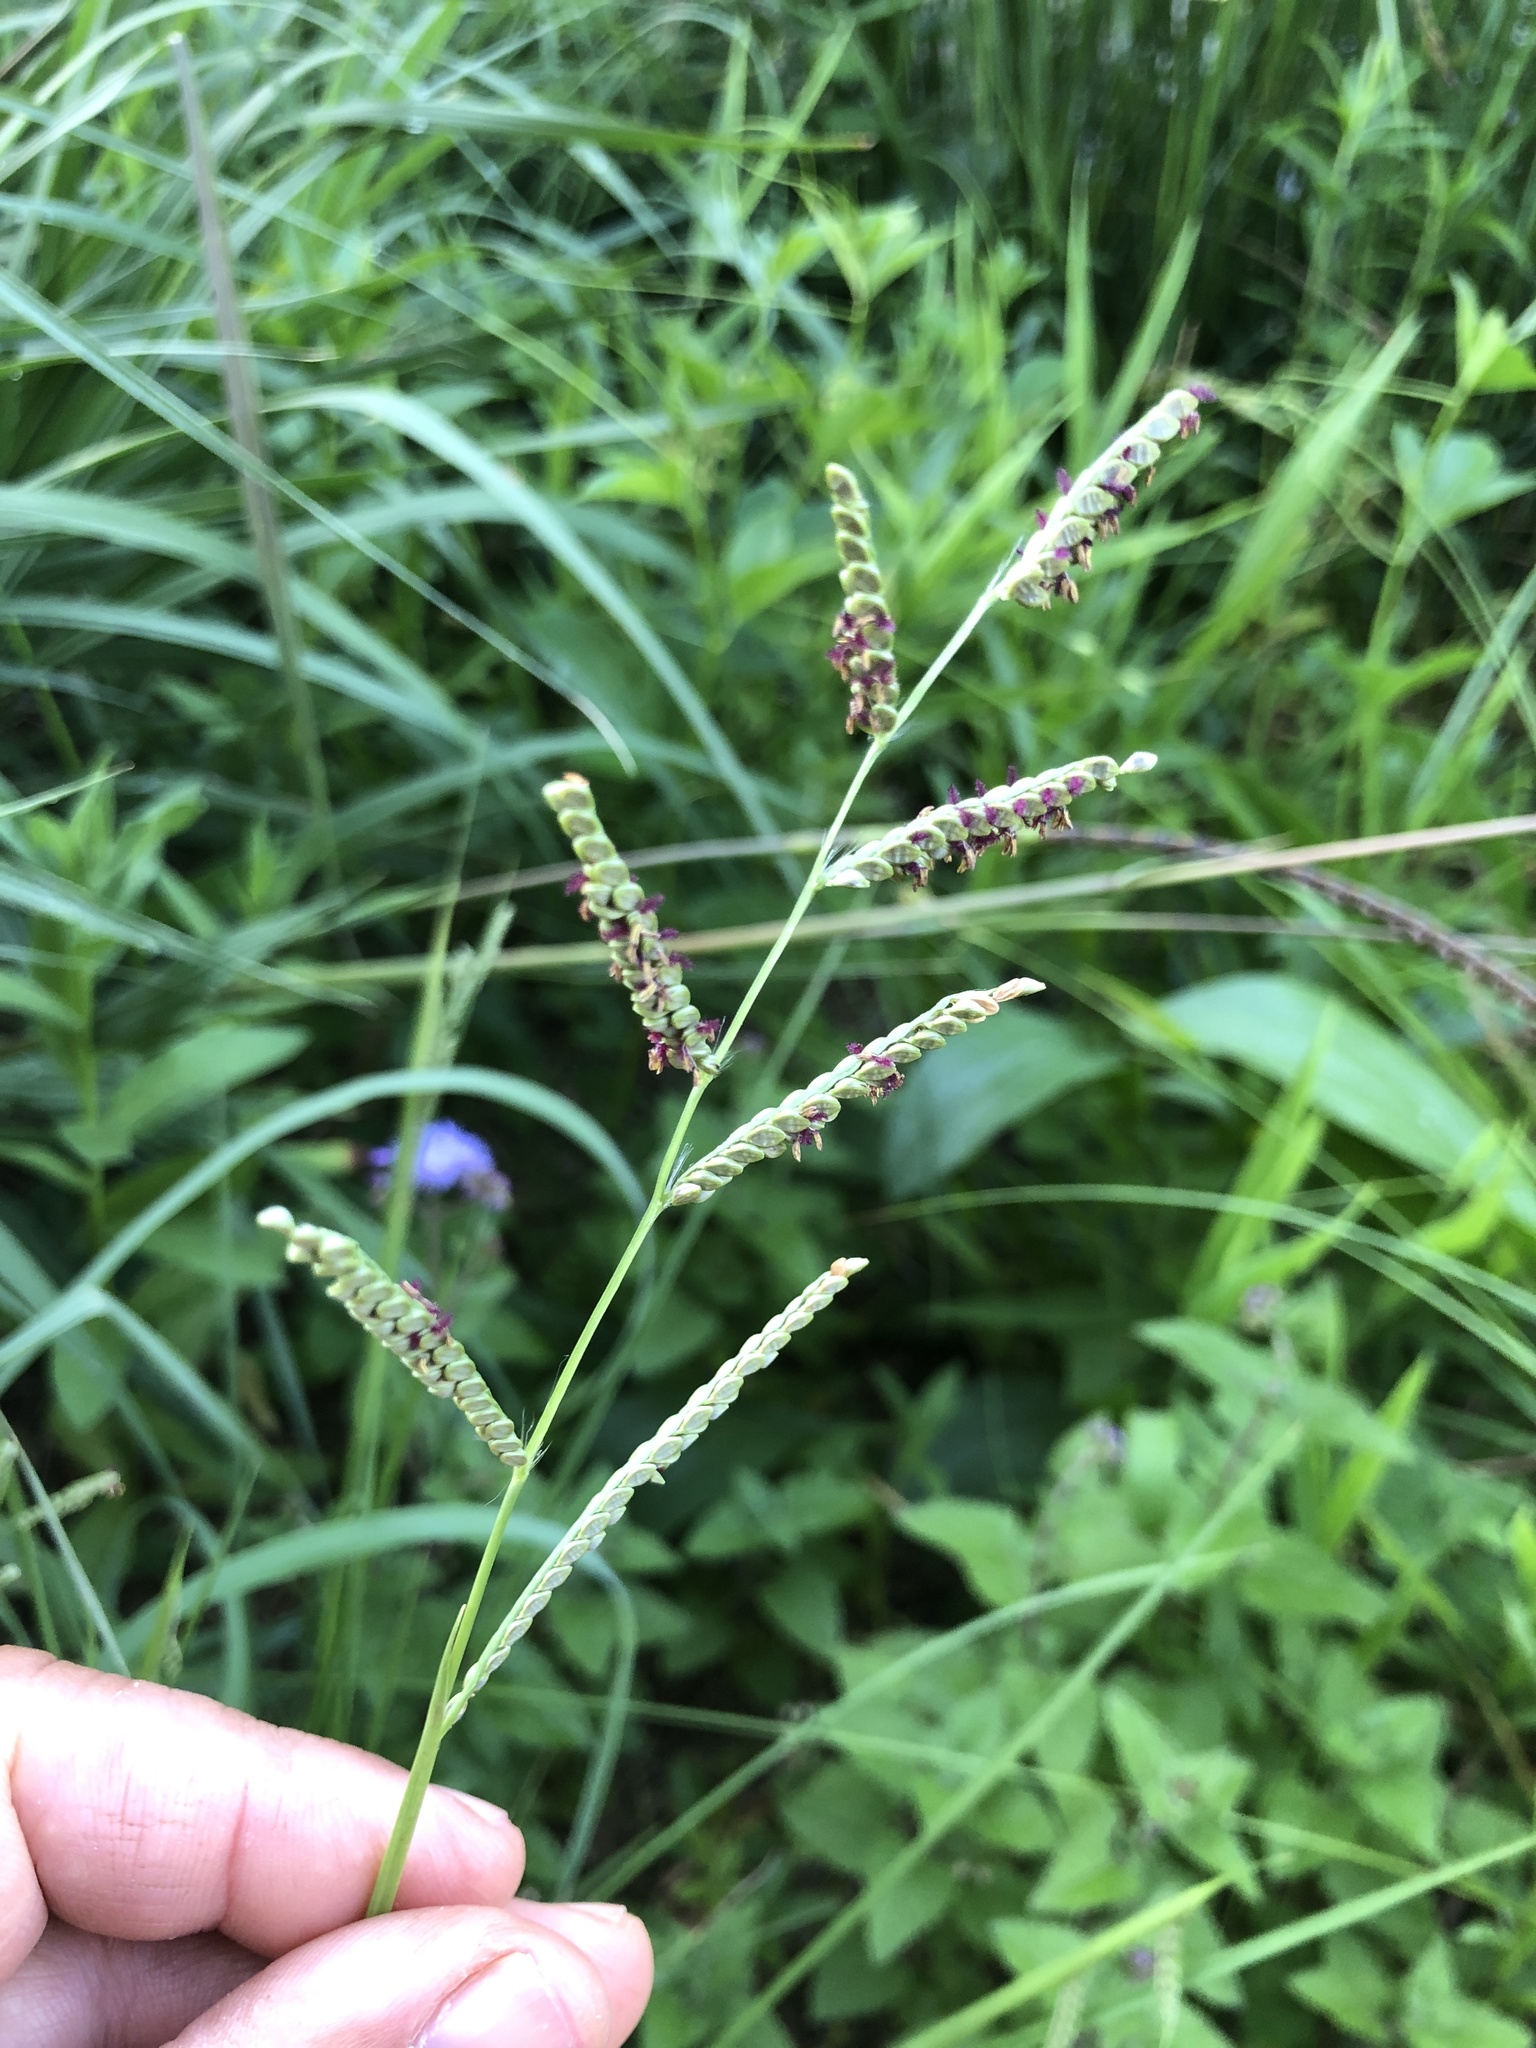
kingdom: Plantae
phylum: Tracheophyta
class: Liliopsida
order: Poales
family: Poaceae
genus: Paspalum
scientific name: Paspalum plicatulum
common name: Top paspalum
